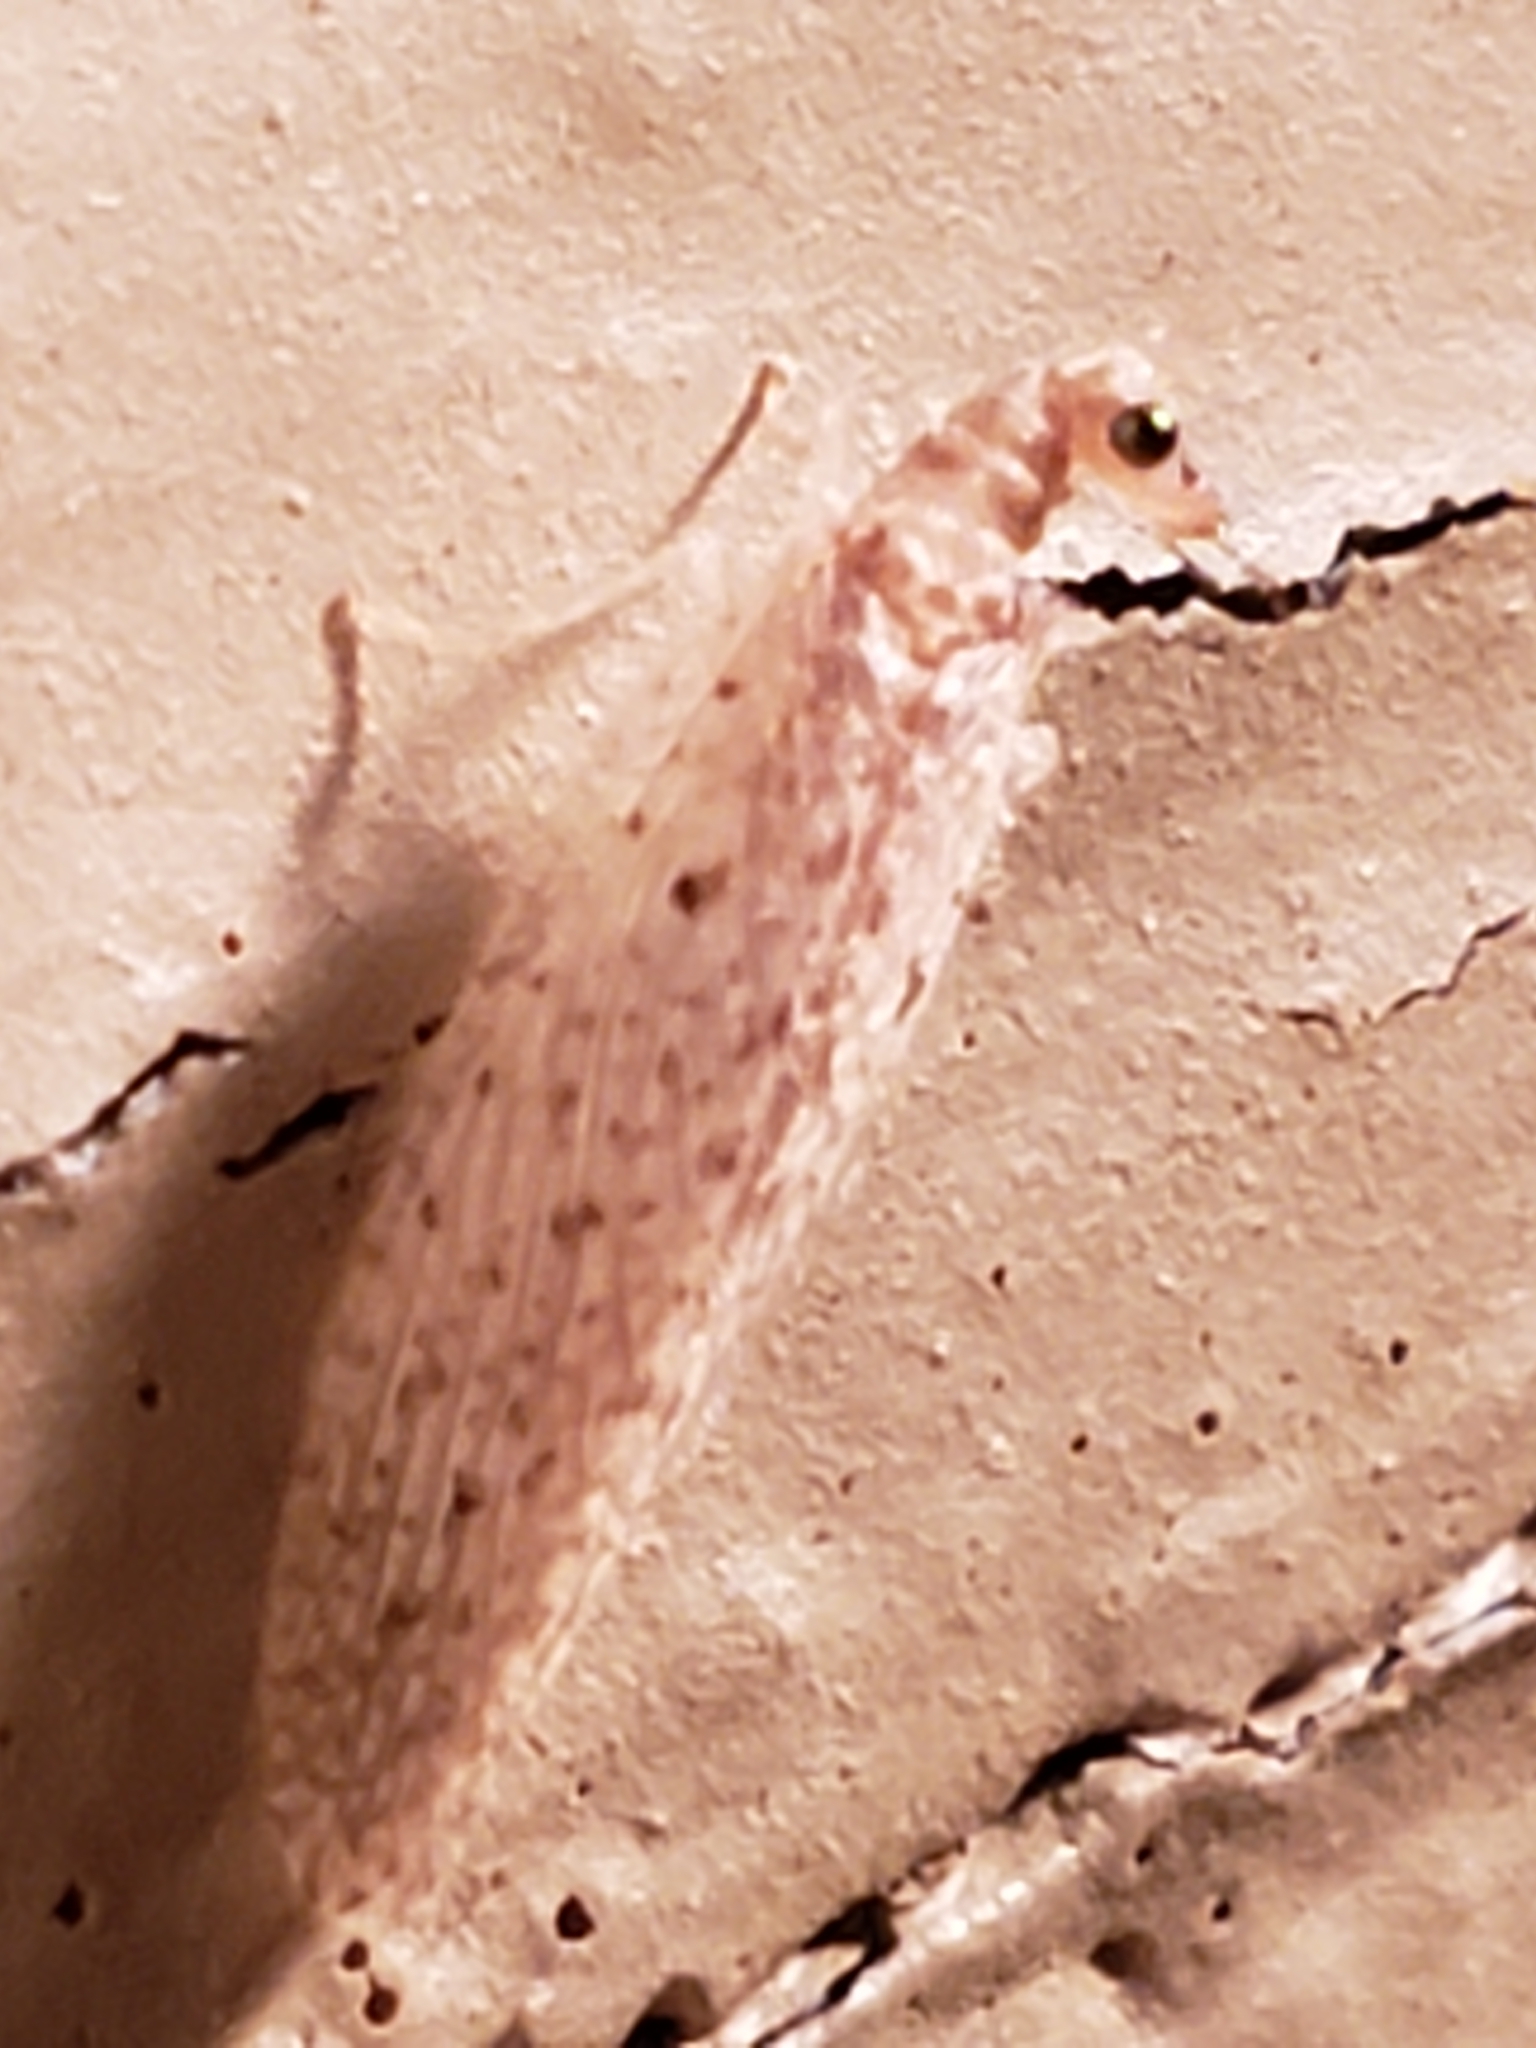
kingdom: Animalia
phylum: Arthropoda
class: Insecta
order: Neuroptera
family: Hemerobiidae
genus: Micromus
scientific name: Micromus subanticus
